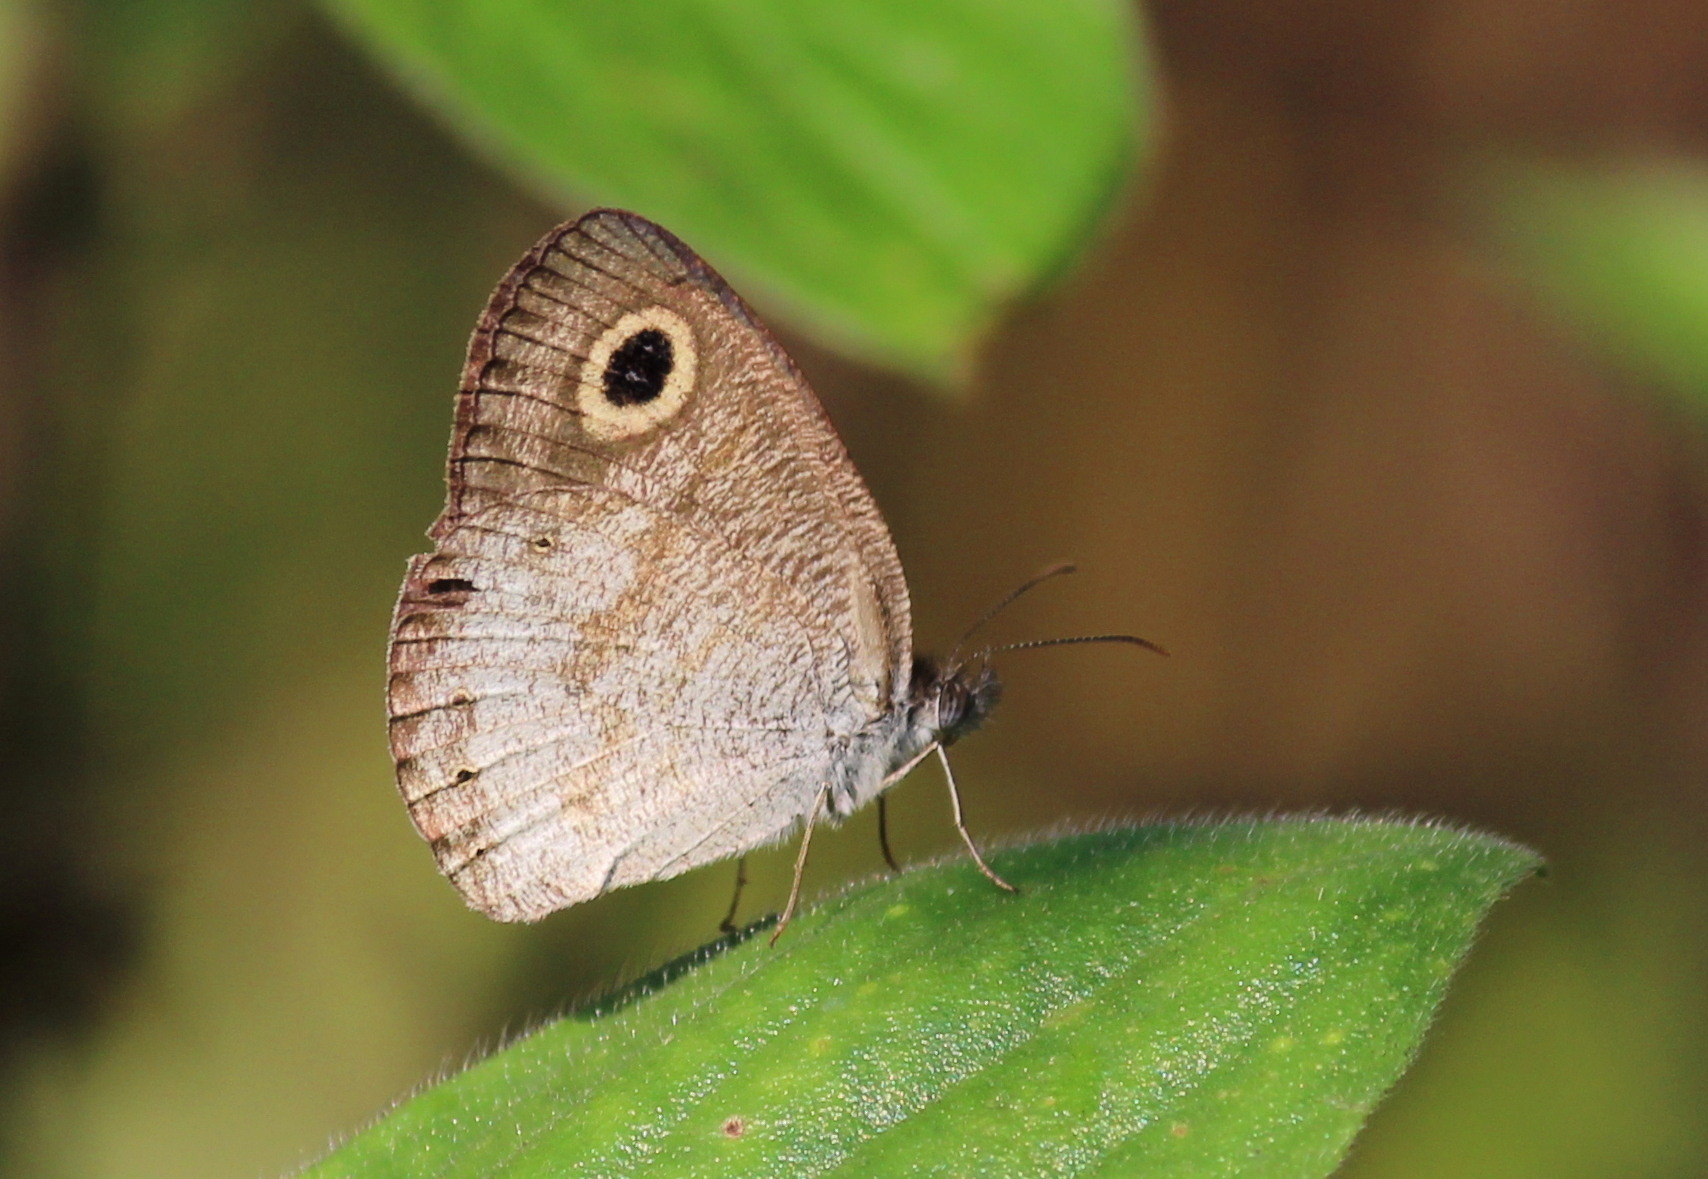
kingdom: Animalia
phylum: Arthropoda
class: Insecta
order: Lepidoptera
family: Nymphalidae
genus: Ypthima
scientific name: Ypthima huebneri
